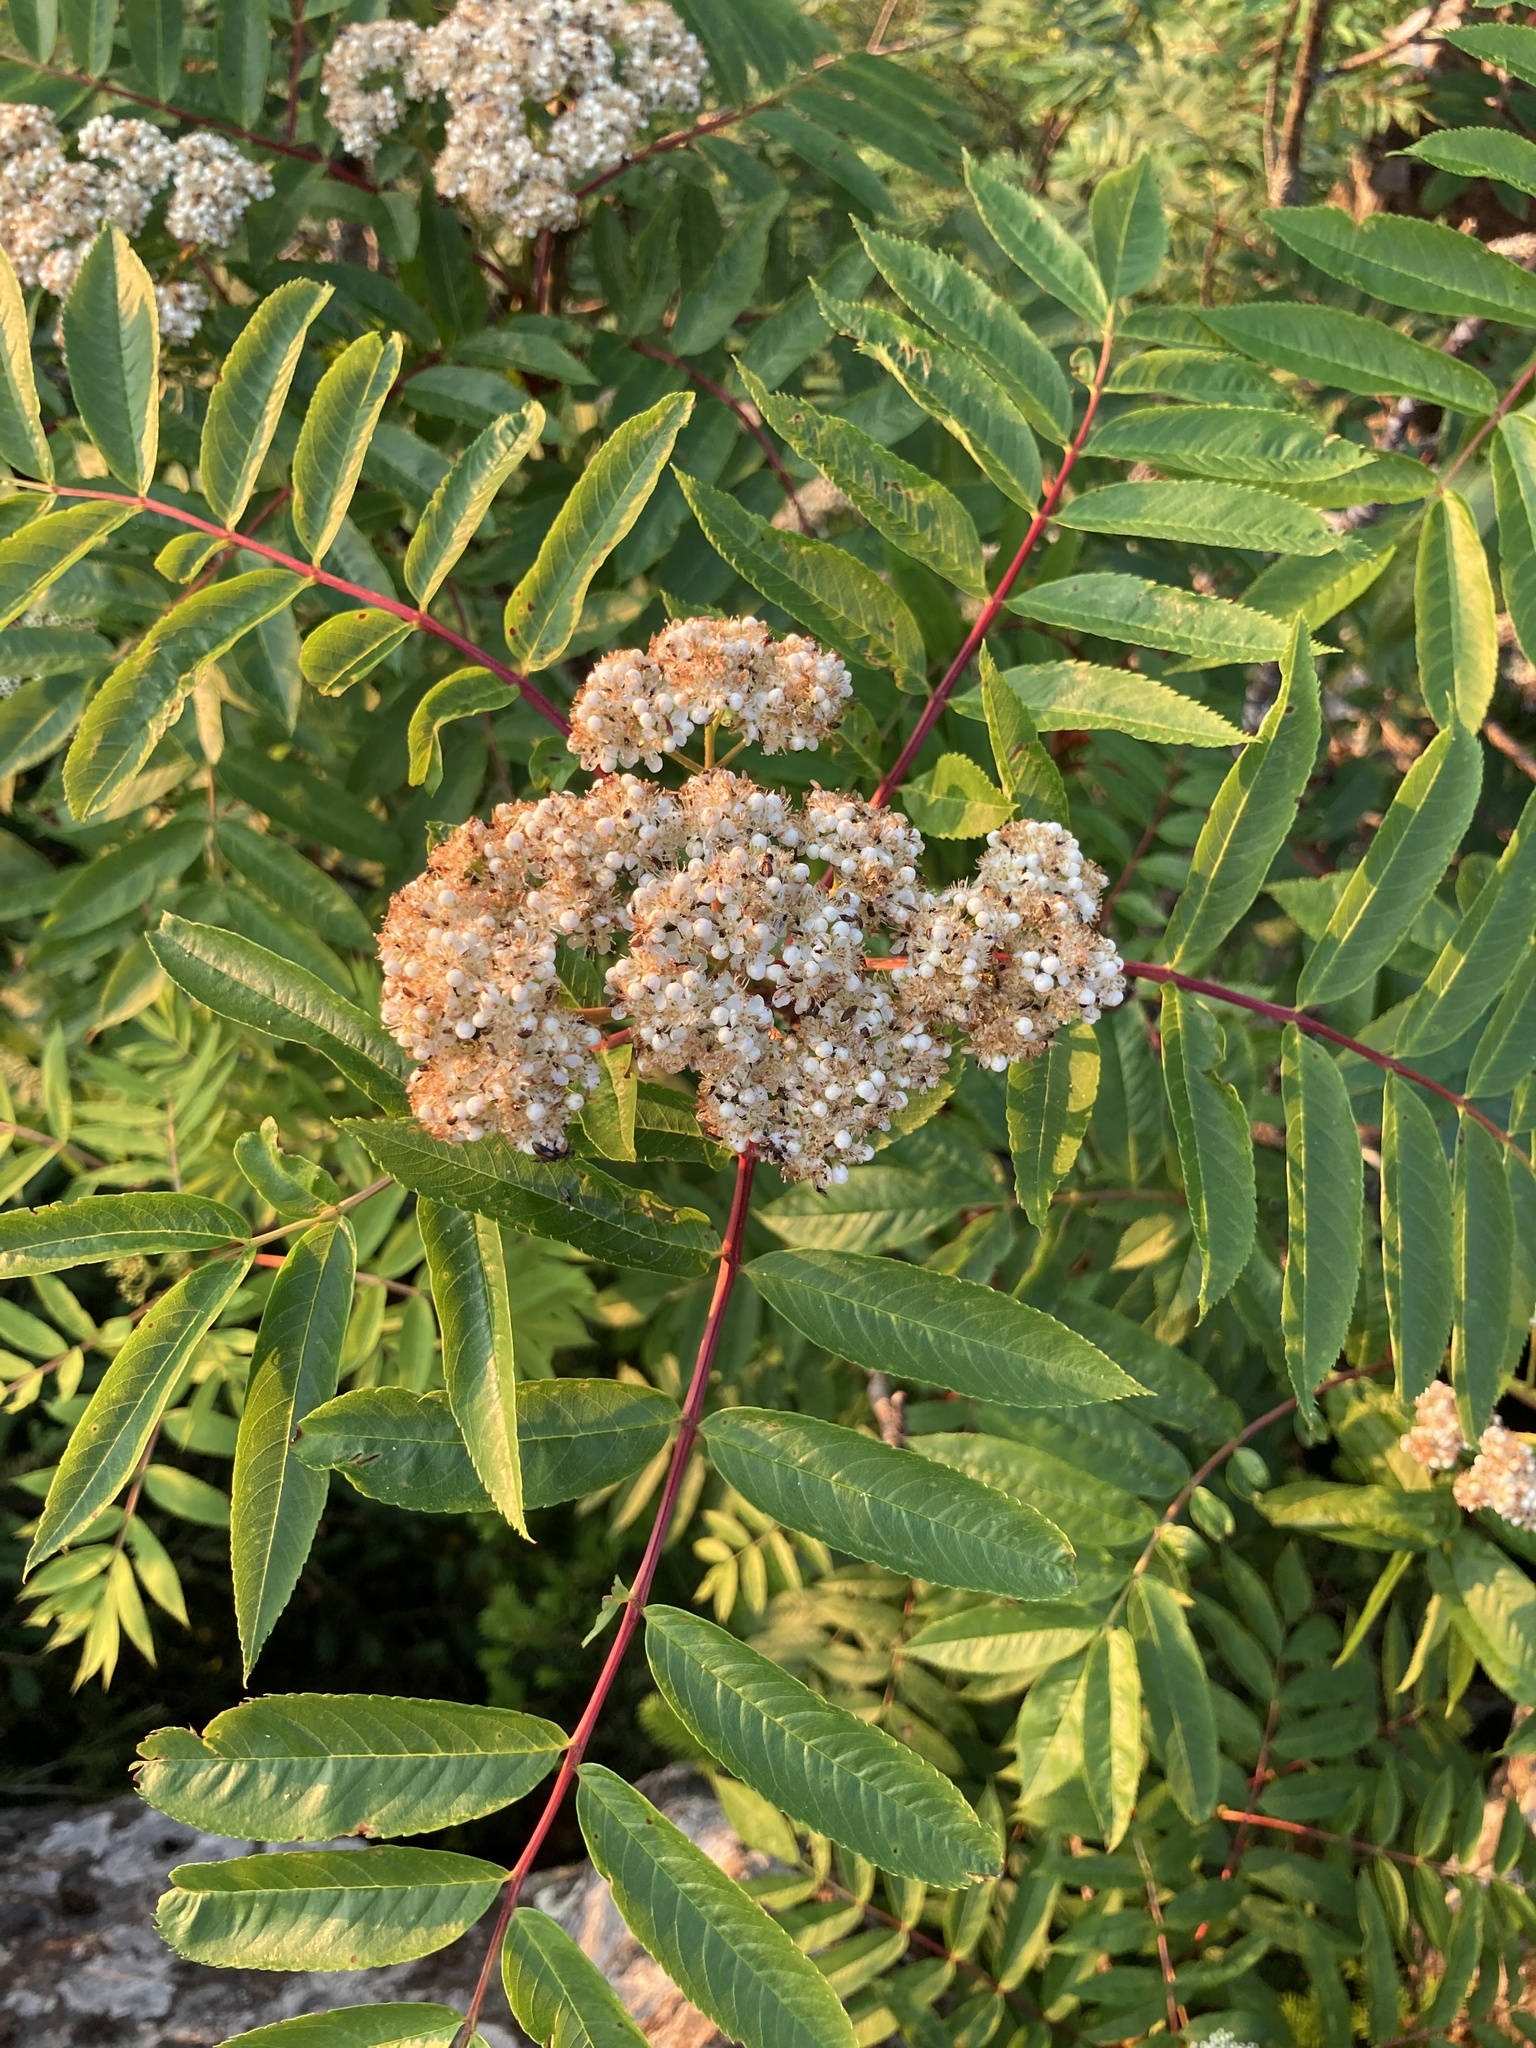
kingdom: Plantae
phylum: Tracheophyta
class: Magnoliopsida
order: Rosales
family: Rosaceae
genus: Sorbus
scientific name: Sorbus americana
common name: American mountain-ash
